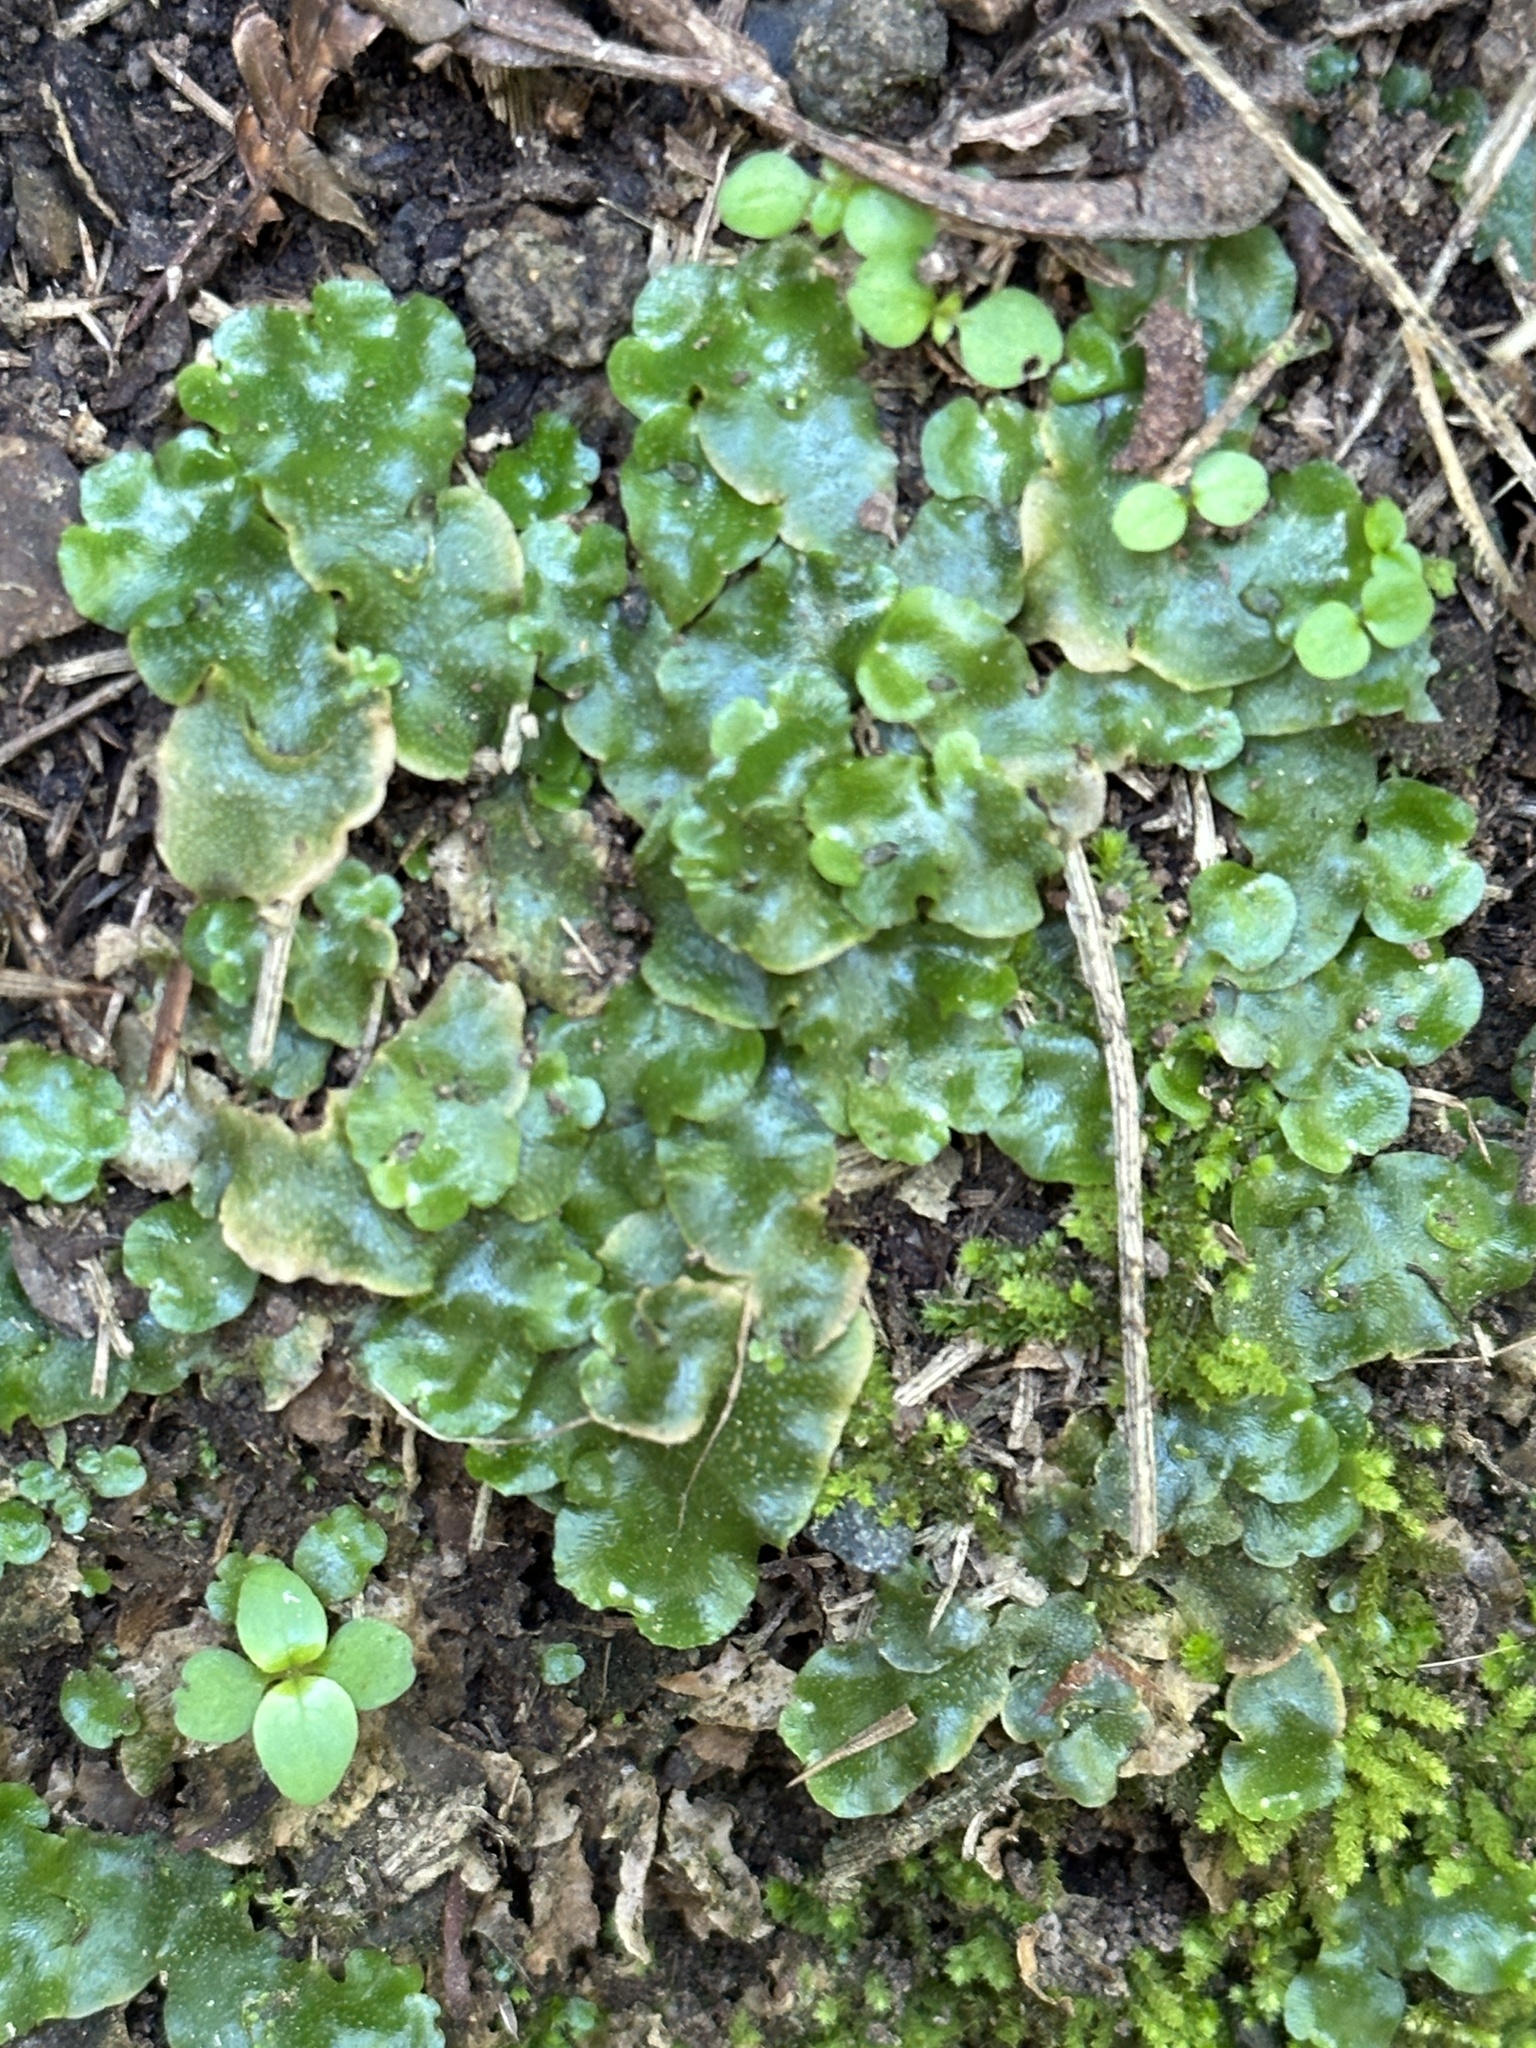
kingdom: Plantae
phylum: Marchantiophyta
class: Marchantiopsida
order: Lunulariales
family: Lunulariaceae
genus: Lunularia
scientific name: Lunularia cruciata
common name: Crescent-cup liverwort
